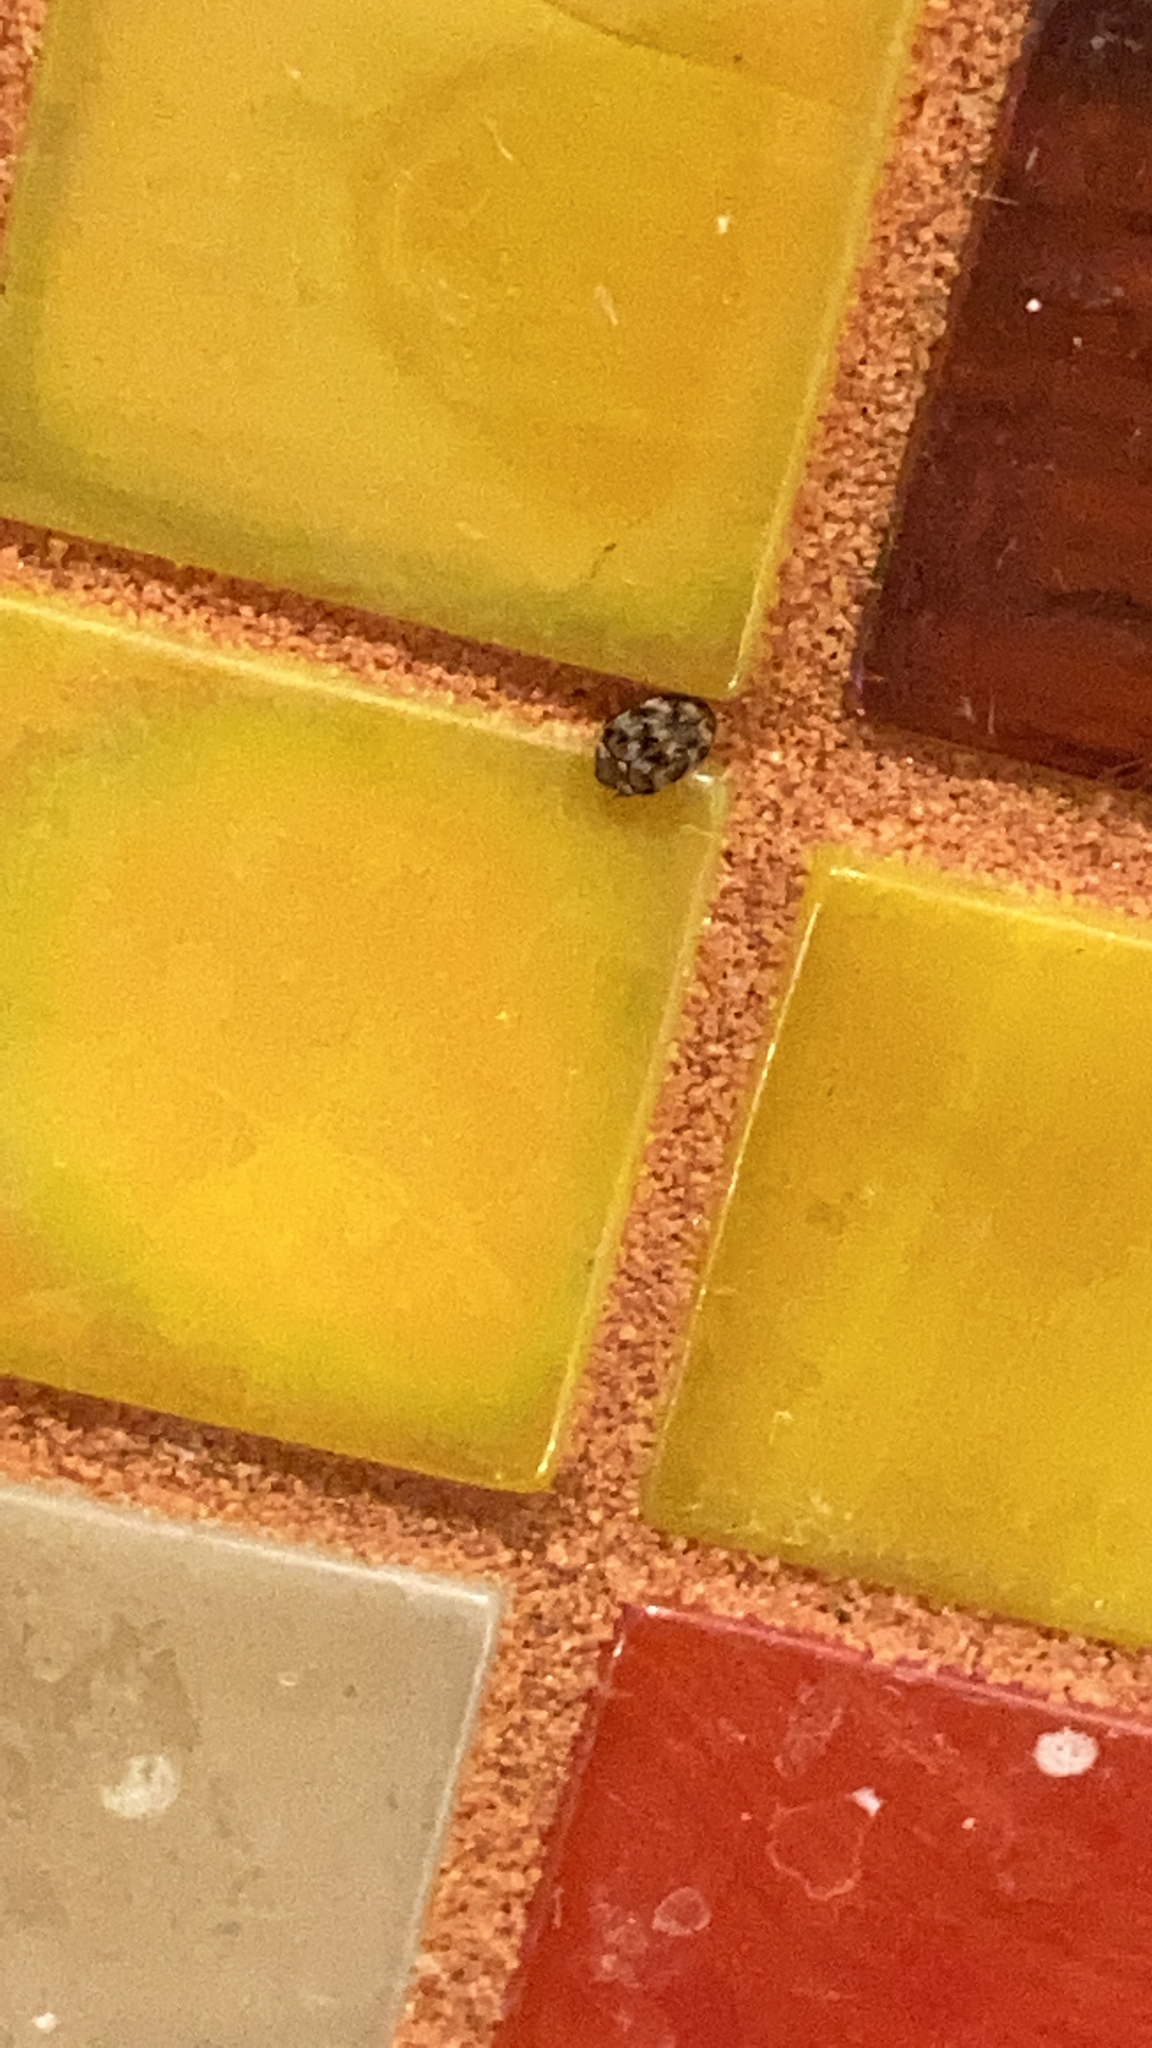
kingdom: Animalia
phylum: Arthropoda
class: Insecta
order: Coleoptera
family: Dermestidae
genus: Anthrenus
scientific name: Anthrenus verbasci
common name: Varied carpet beetle
